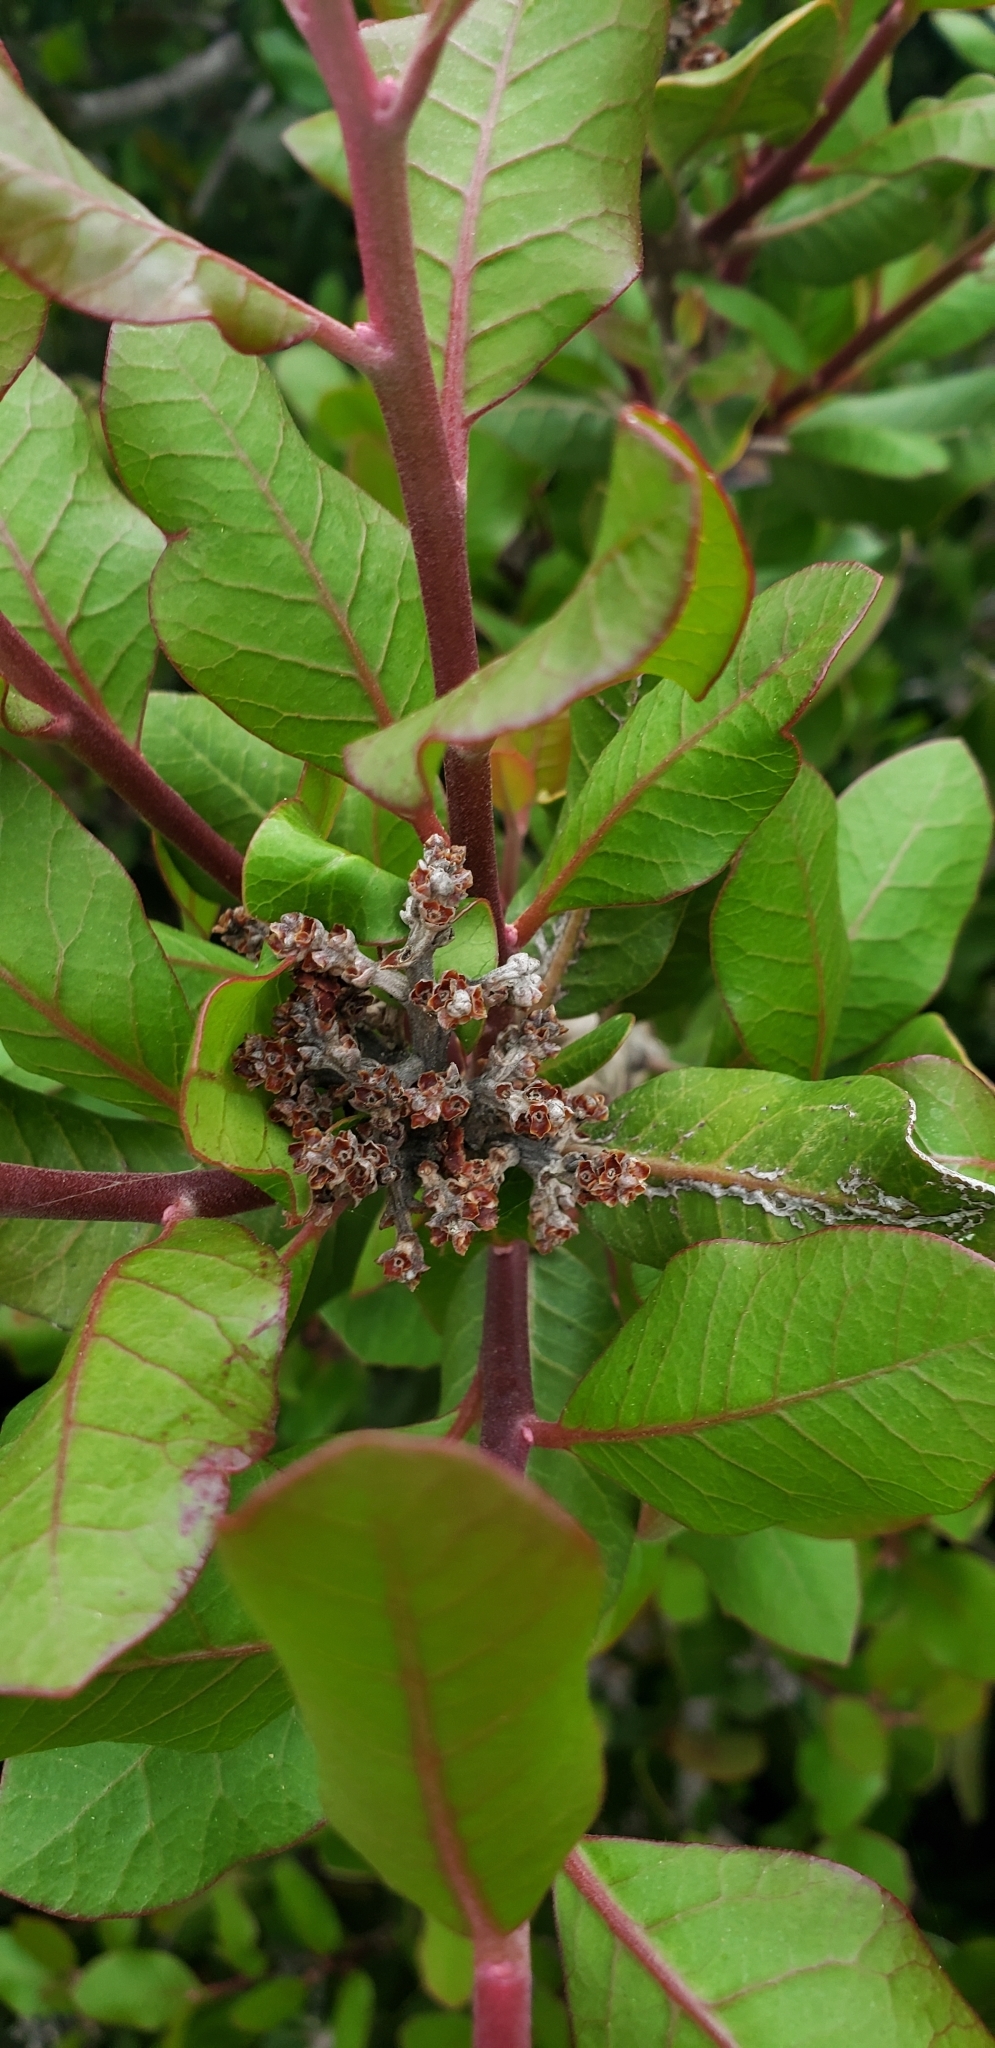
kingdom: Plantae
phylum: Tracheophyta
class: Magnoliopsida
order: Sapindales
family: Anacardiaceae
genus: Rhus
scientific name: Rhus integrifolia
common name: Lemonade sumac
